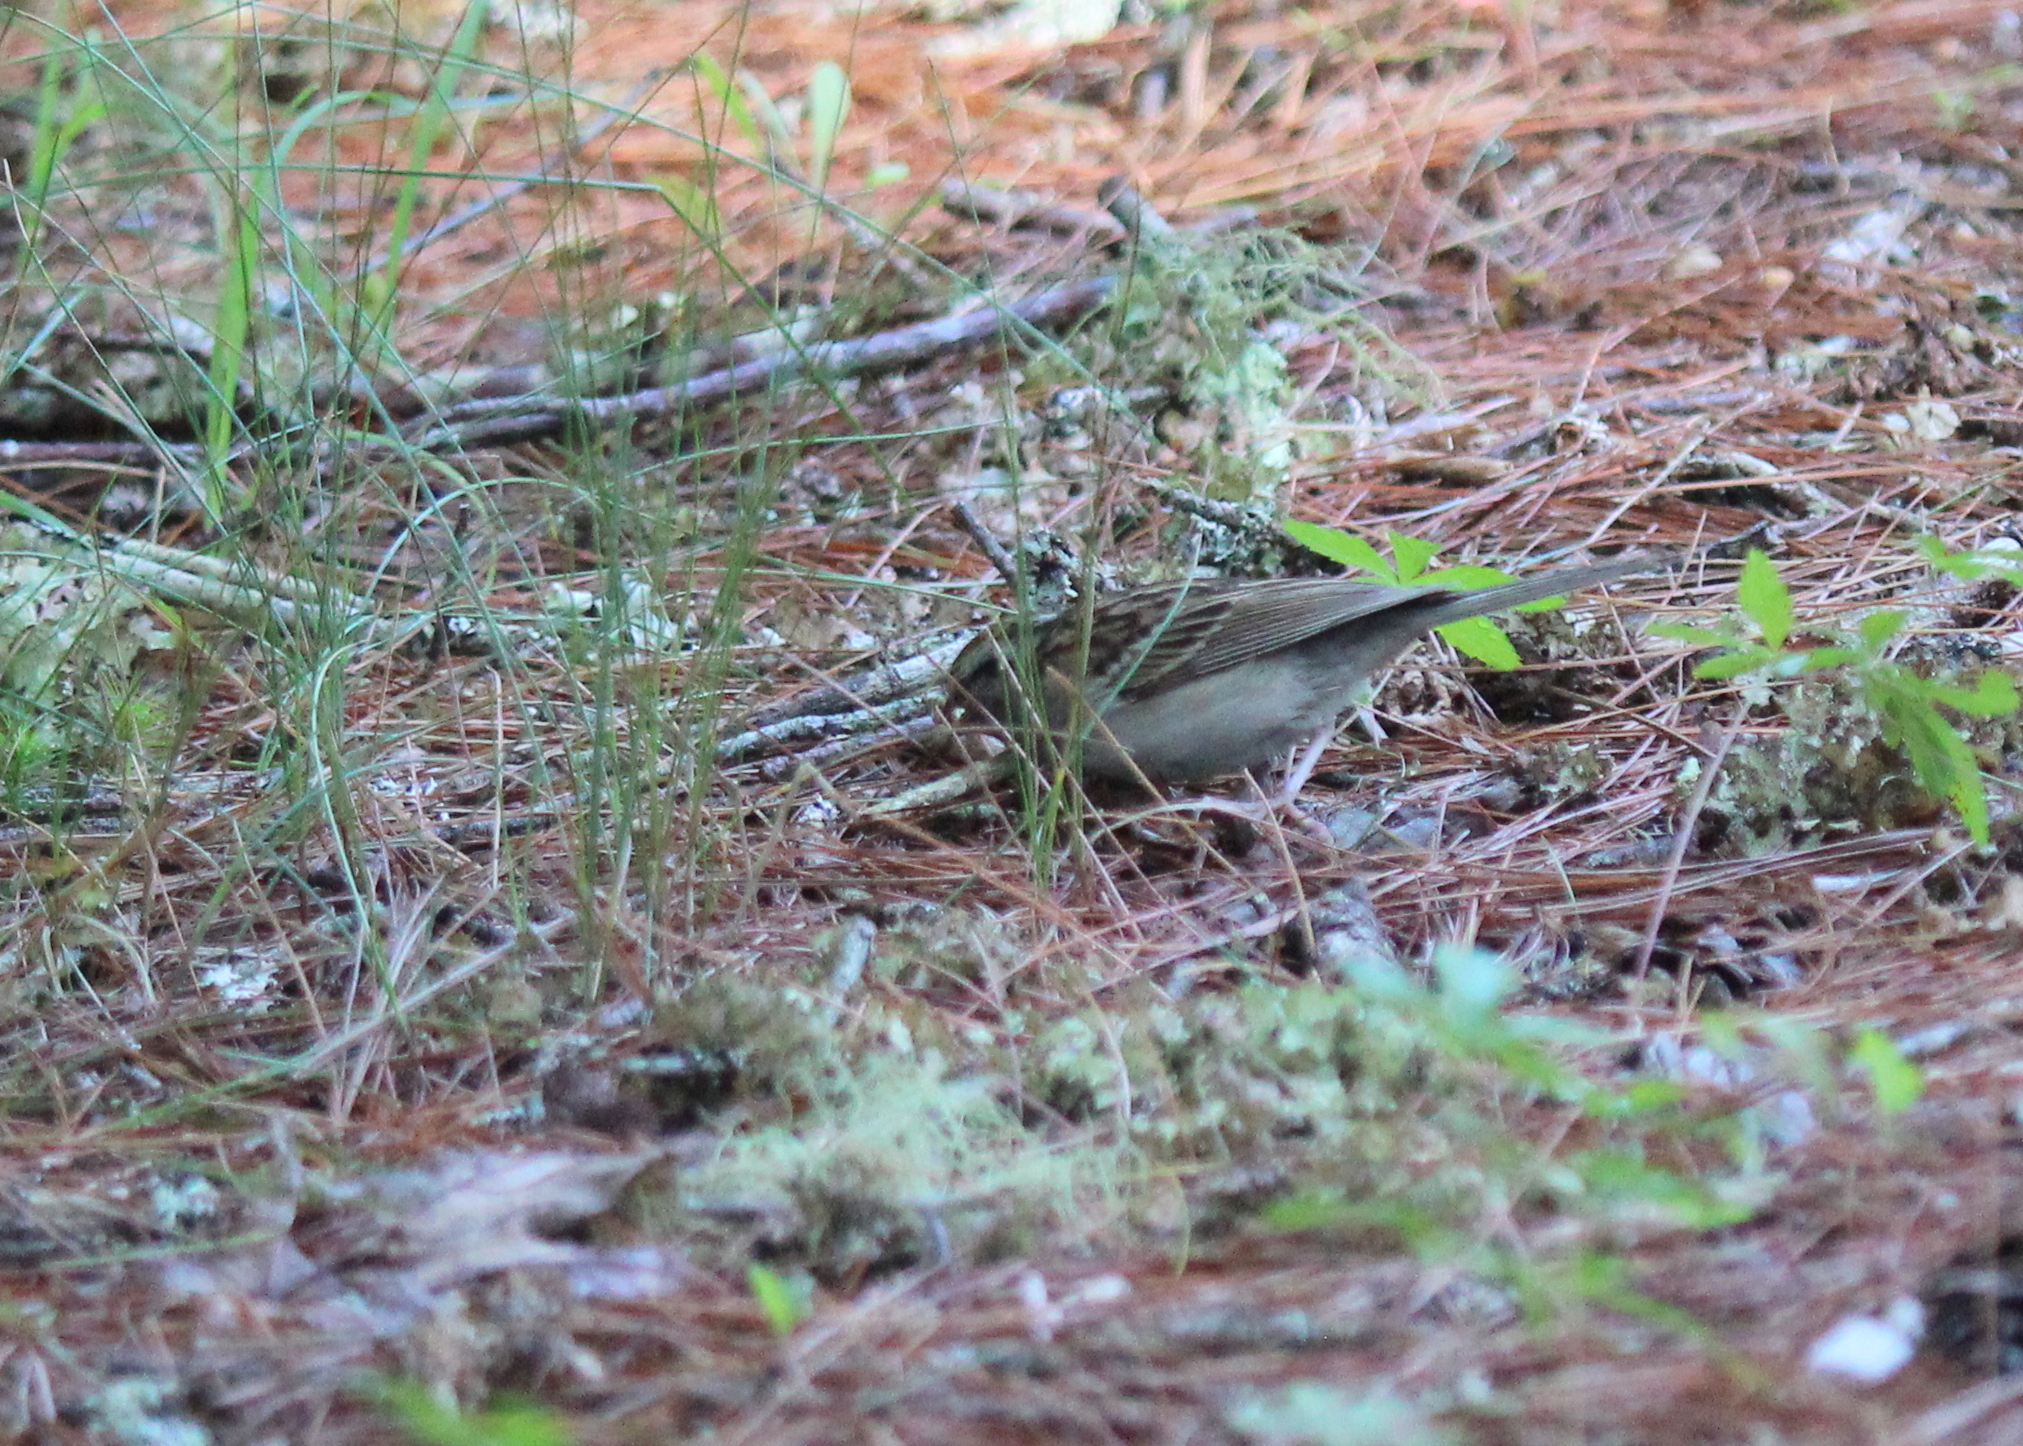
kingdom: Animalia
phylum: Chordata
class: Aves
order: Passeriformes
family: Passerellidae
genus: Spizella
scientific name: Spizella passerina
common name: Chipping sparrow
